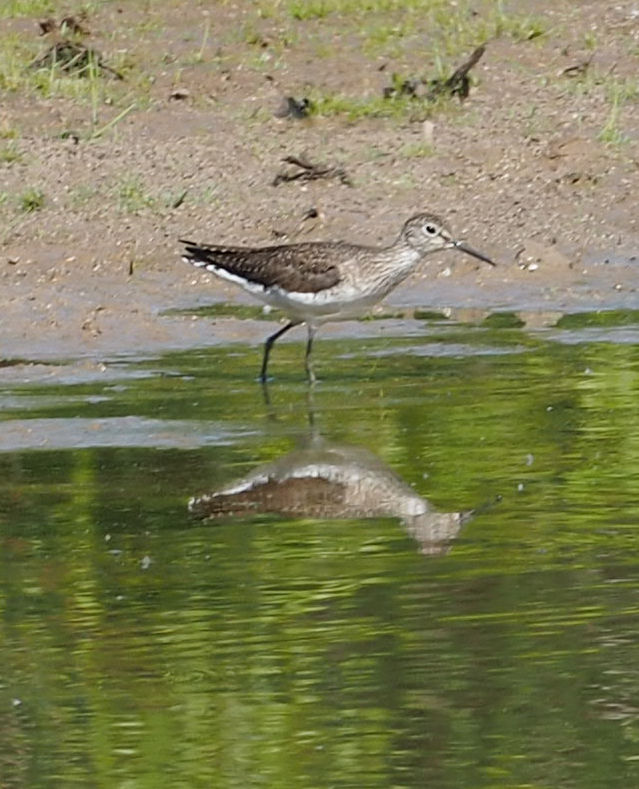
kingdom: Animalia
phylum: Chordata
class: Aves
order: Charadriiformes
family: Scolopacidae
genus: Tringa
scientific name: Tringa solitaria
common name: Solitary sandpiper
